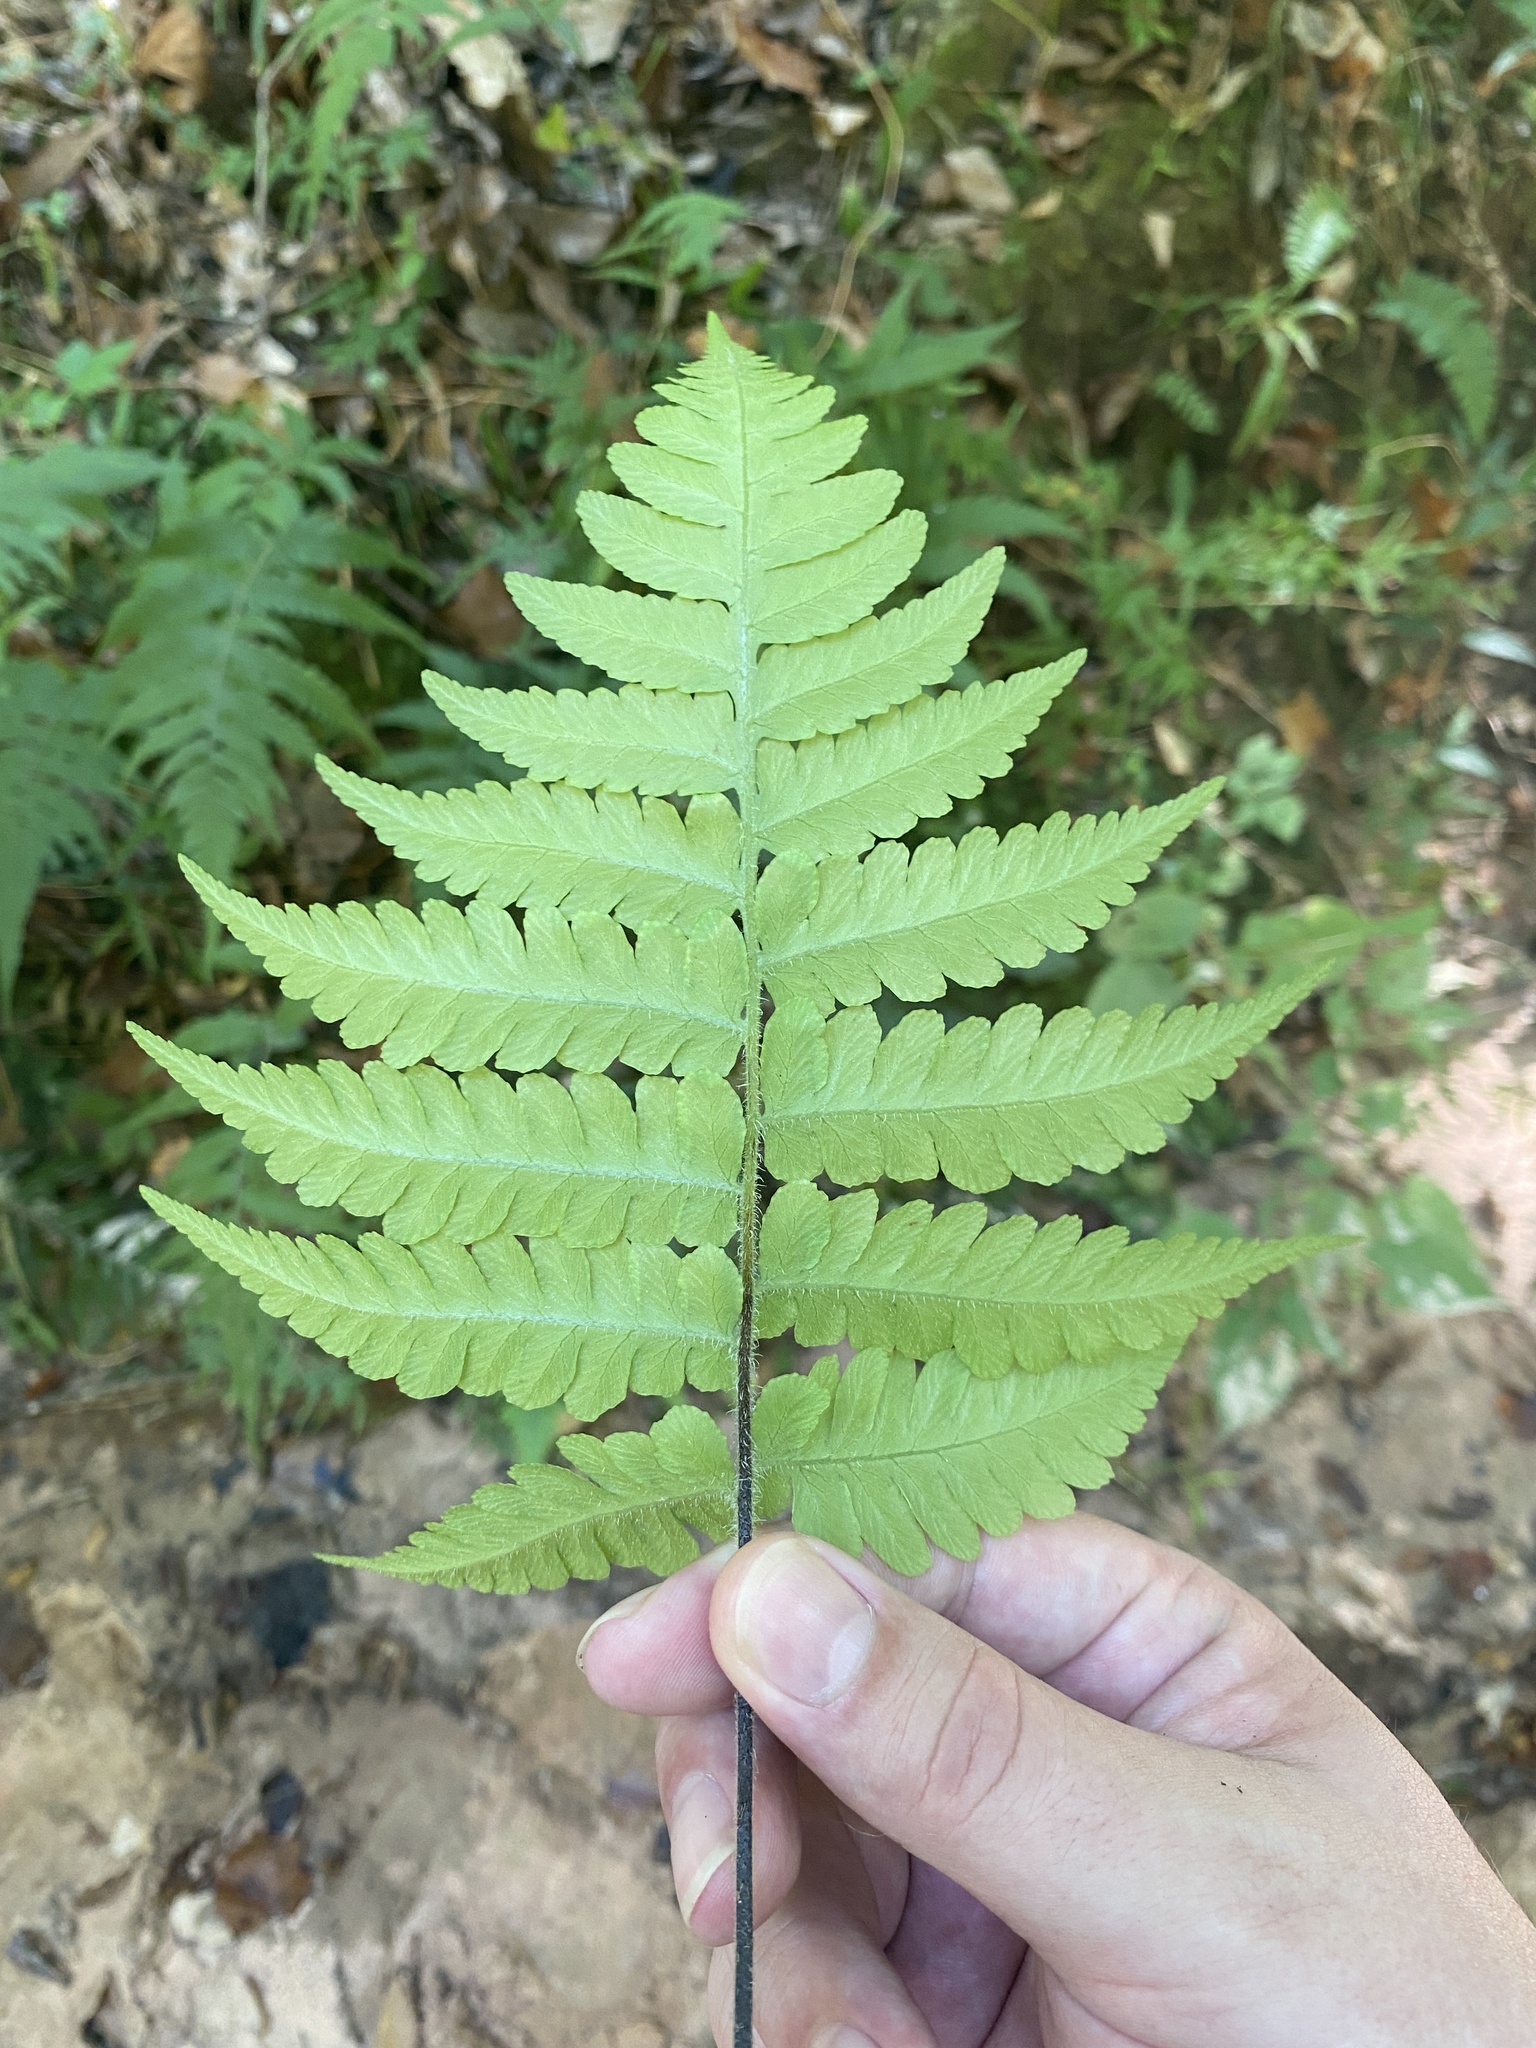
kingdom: Plantae
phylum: Tracheophyta
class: Polypodiopsida
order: Polypodiales
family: Athyriaceae
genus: Deparia
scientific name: Deparia petersenii
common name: Japanese false spleenwort
